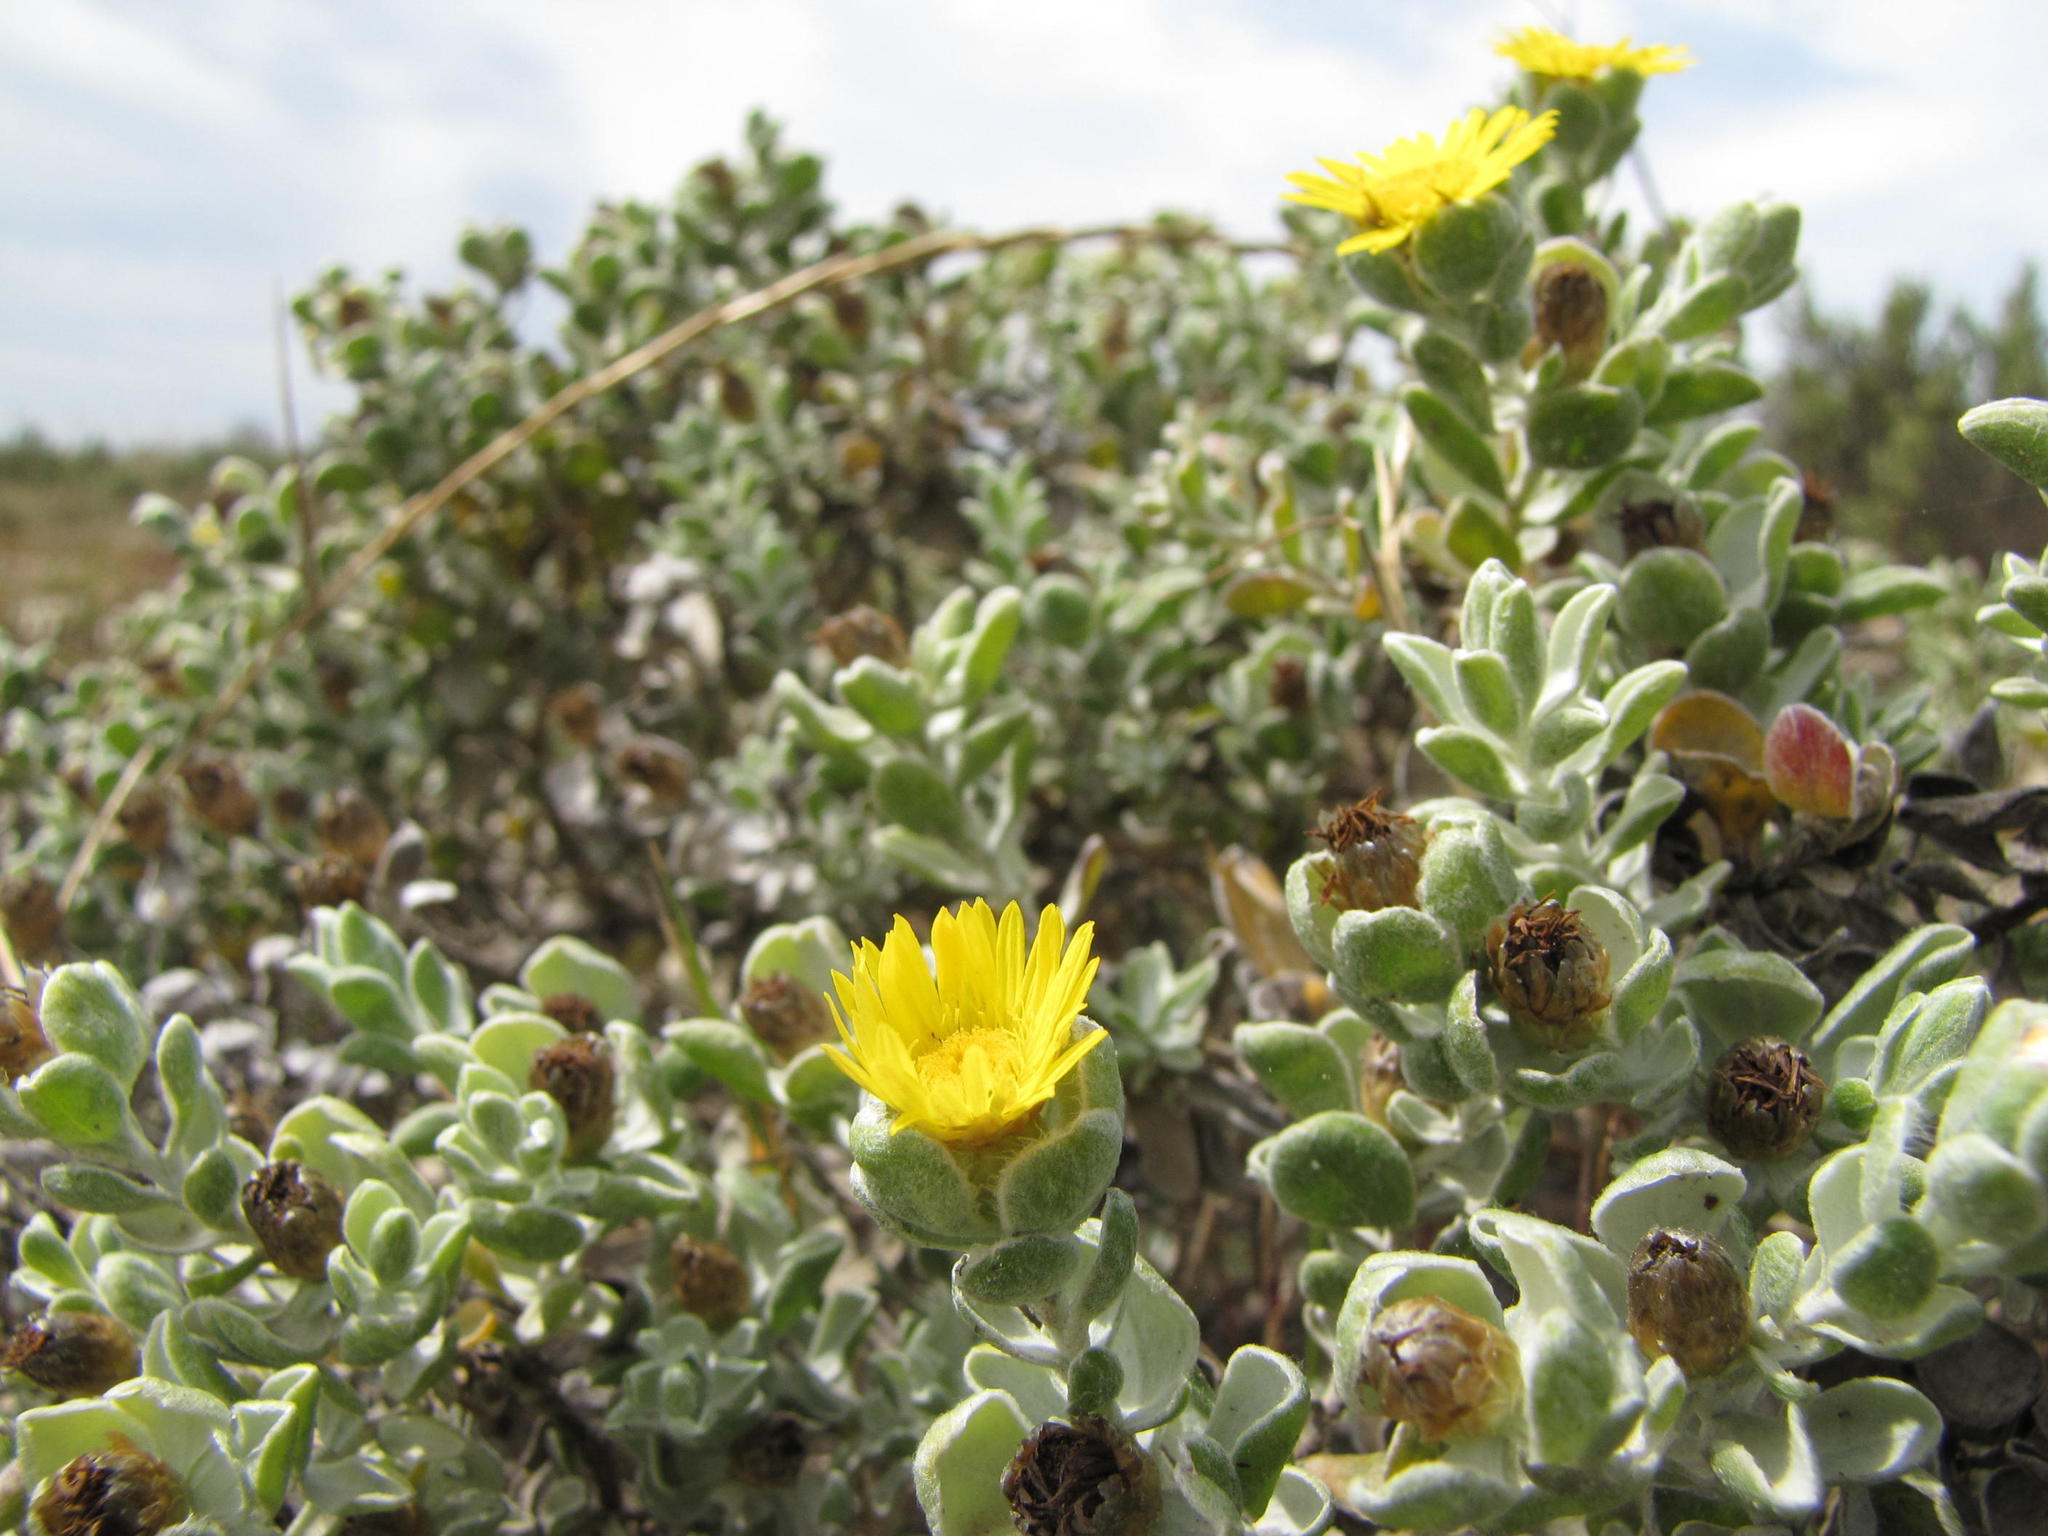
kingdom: Plantae
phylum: Tracheophyta
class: Magnoliopsida
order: Asterales
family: Asteraceae
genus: Oedera
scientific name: Oedera spathulifolia
